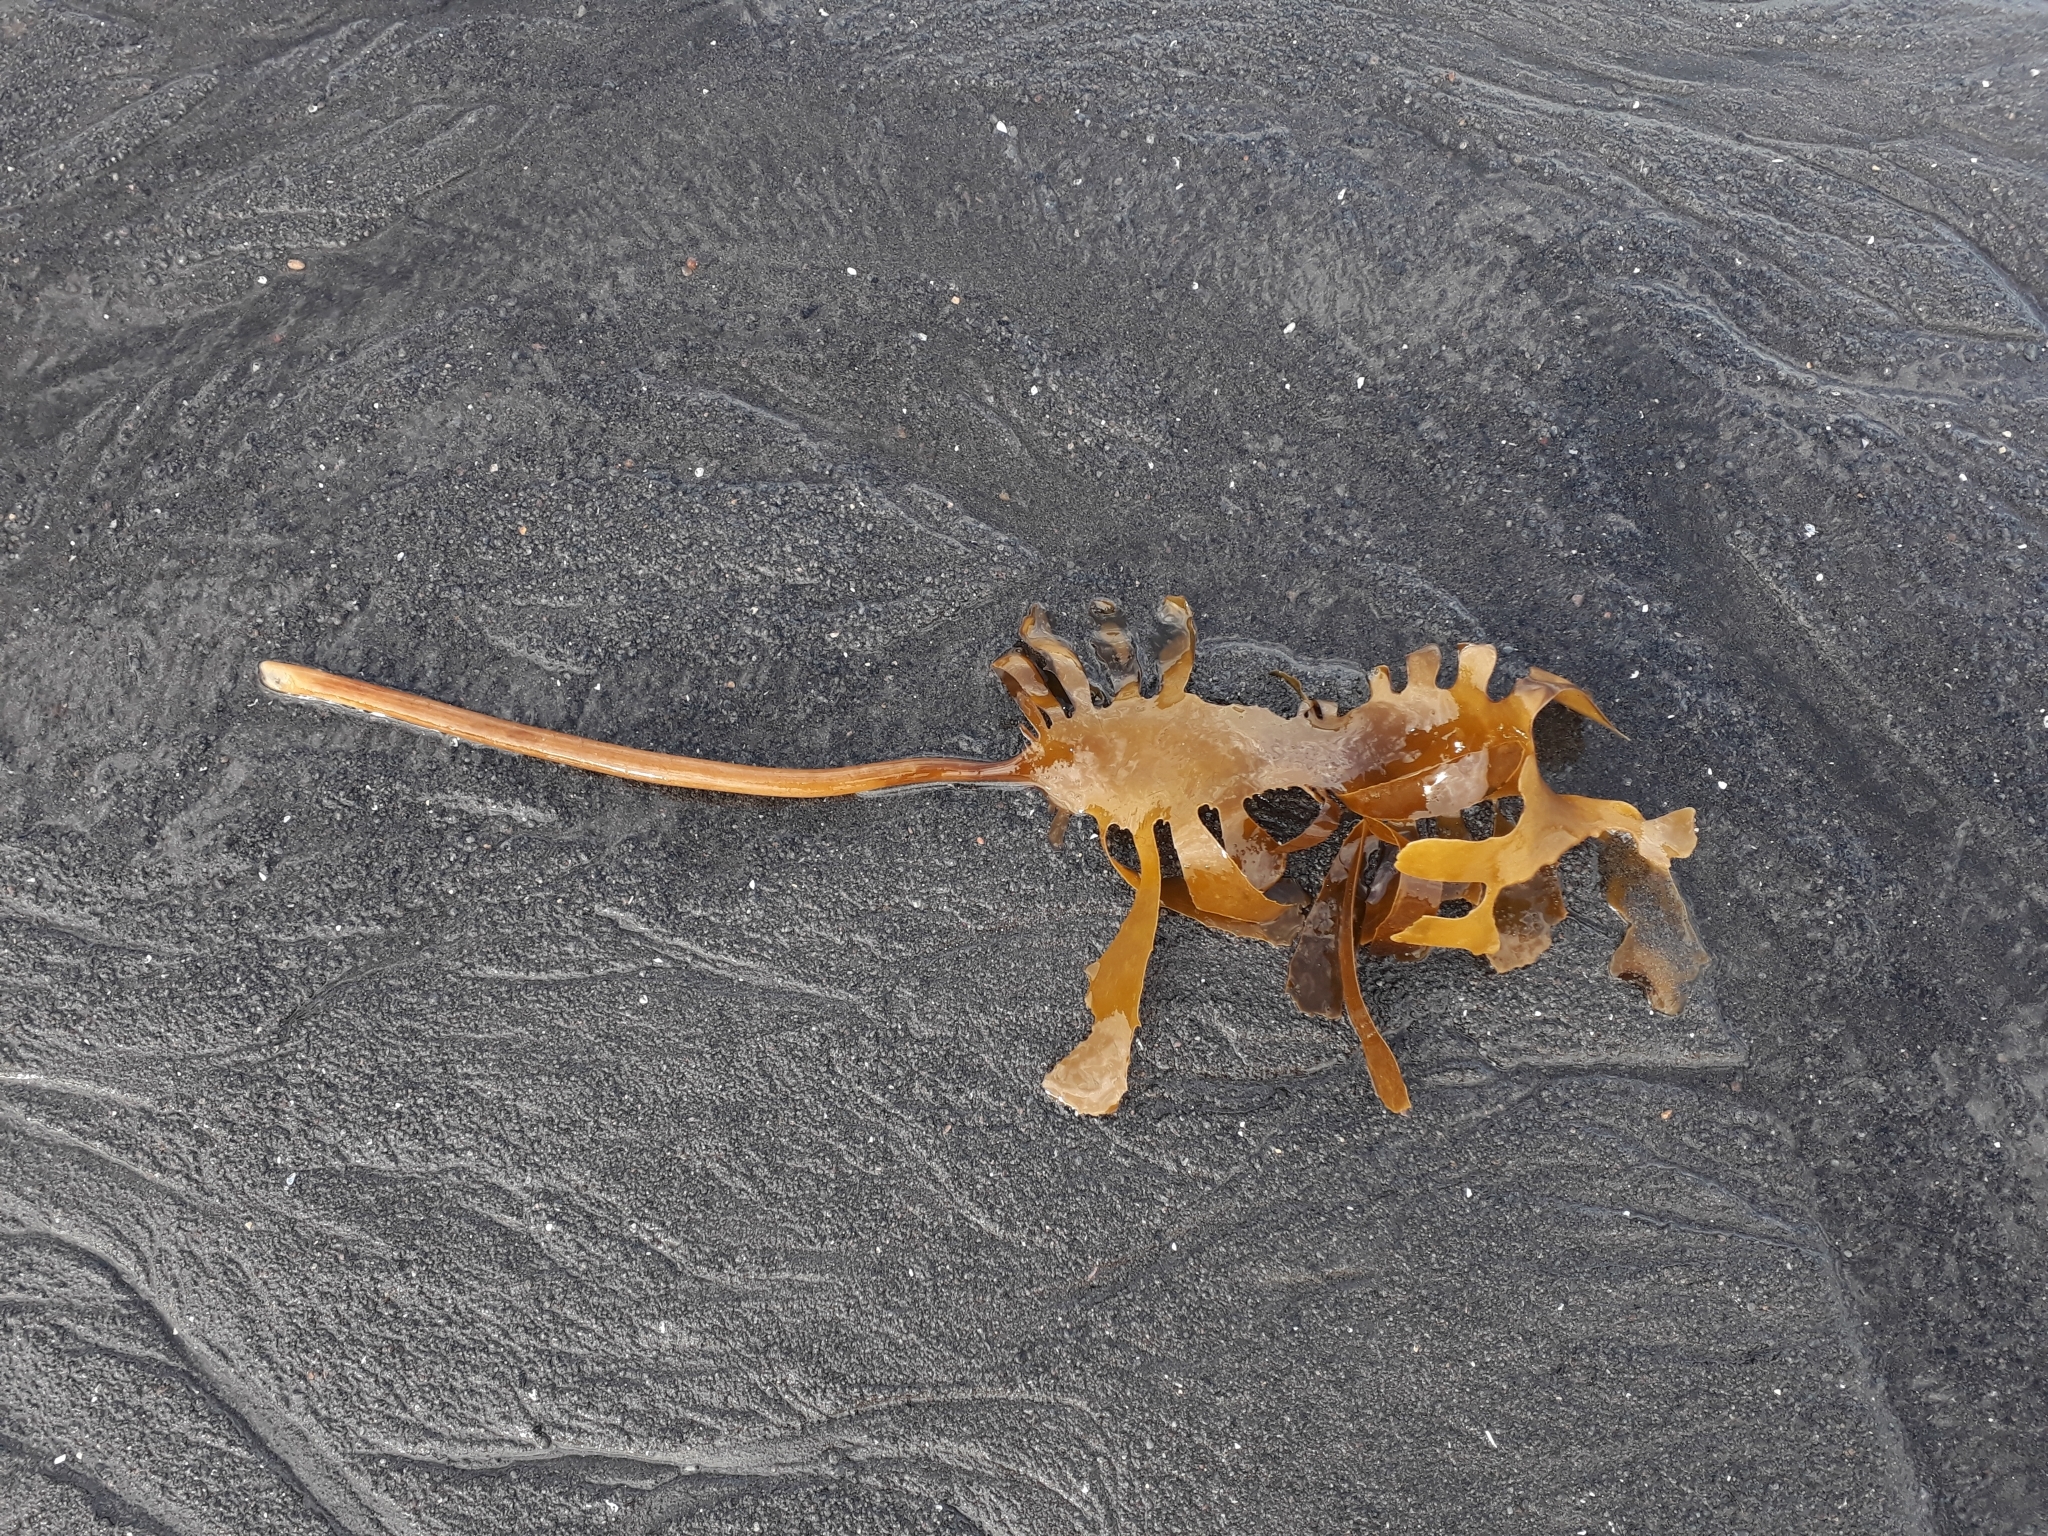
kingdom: Chromista
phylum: Ochrophyta
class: Phaeophyceae
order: Laminariales
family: Lessoniaceae
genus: Ecklonia
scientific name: Ecklonia radiata
